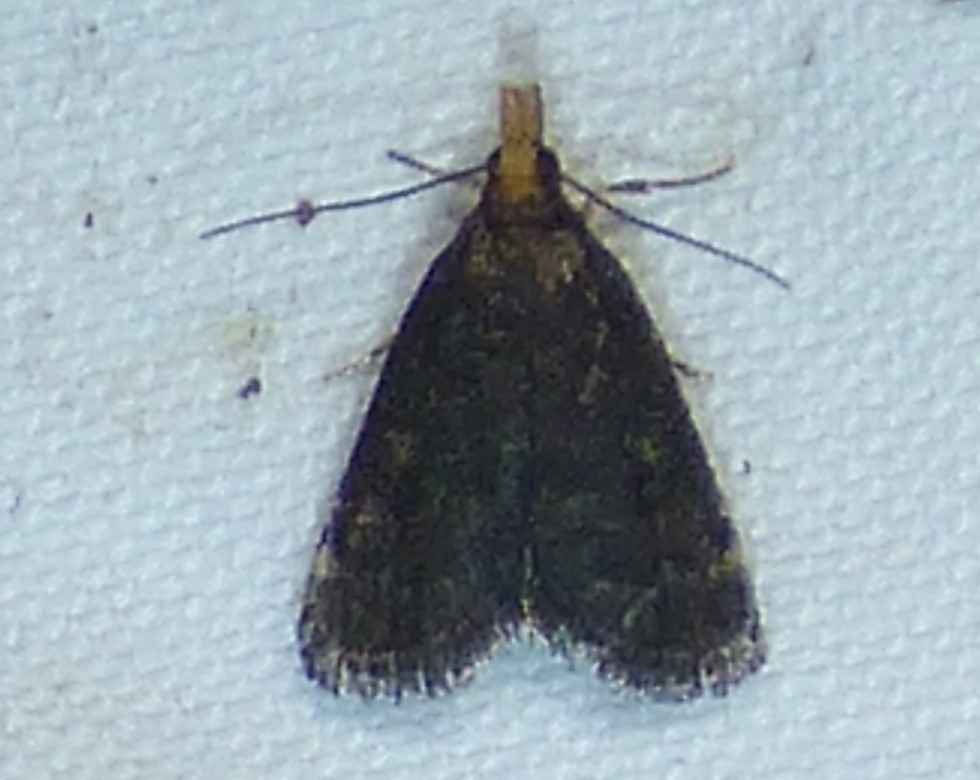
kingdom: Animalia
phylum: Arthropoda
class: Insecta
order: Lepidoptera
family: Crambidae
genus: Pyrausta
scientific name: Pyrausta merrickalis
